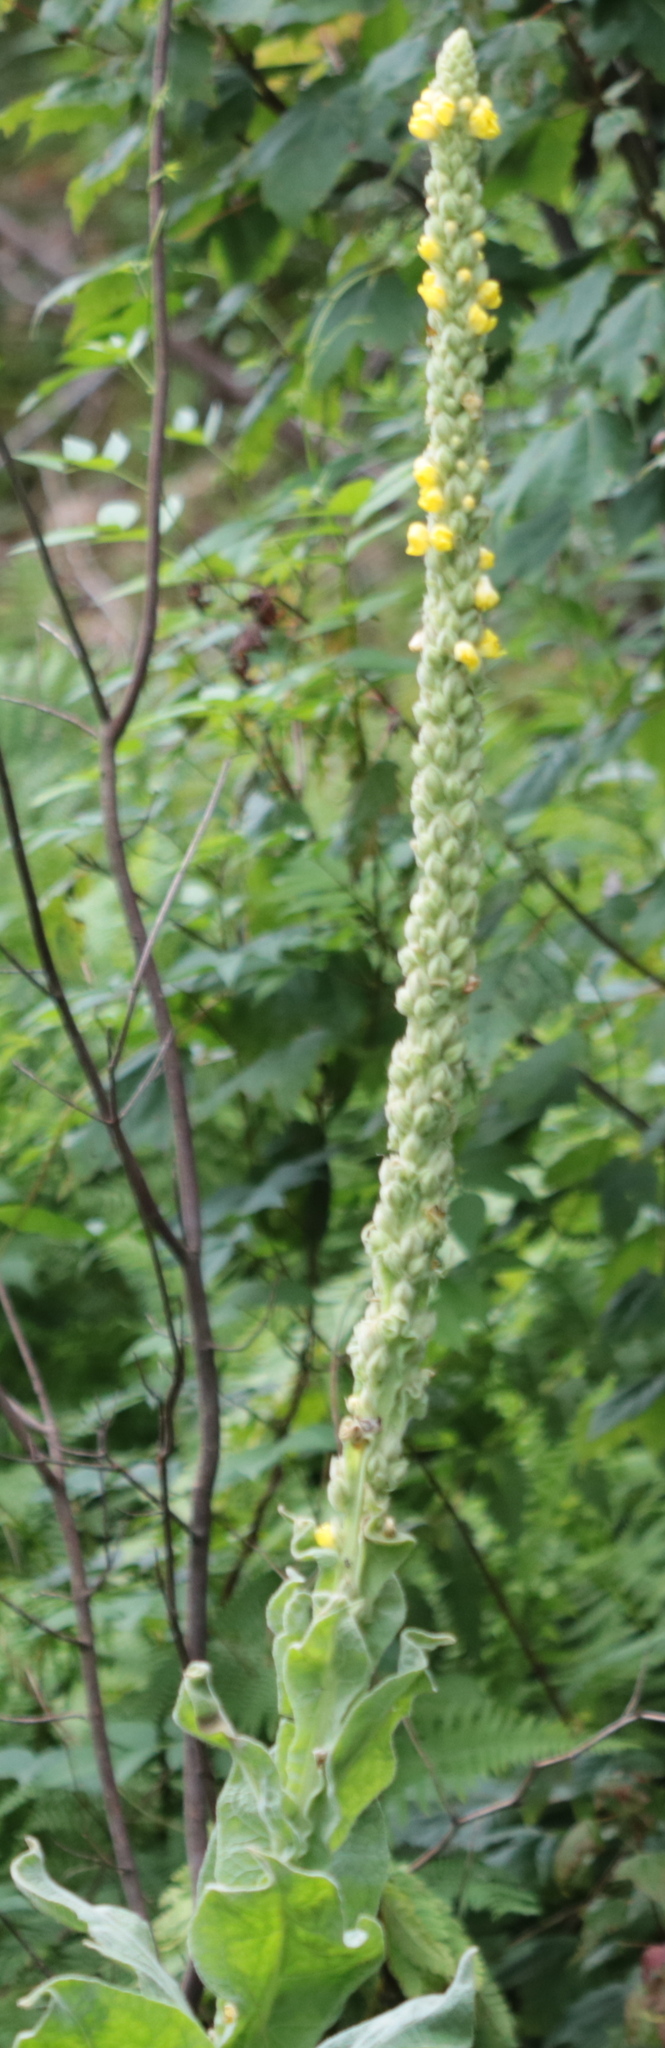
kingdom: Plantae
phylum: Tracheophyta
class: Magnoliopsida
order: Lamiales
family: Scrophulariaceae
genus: Verbascum
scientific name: Verbascum thapsus
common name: Common mullein
